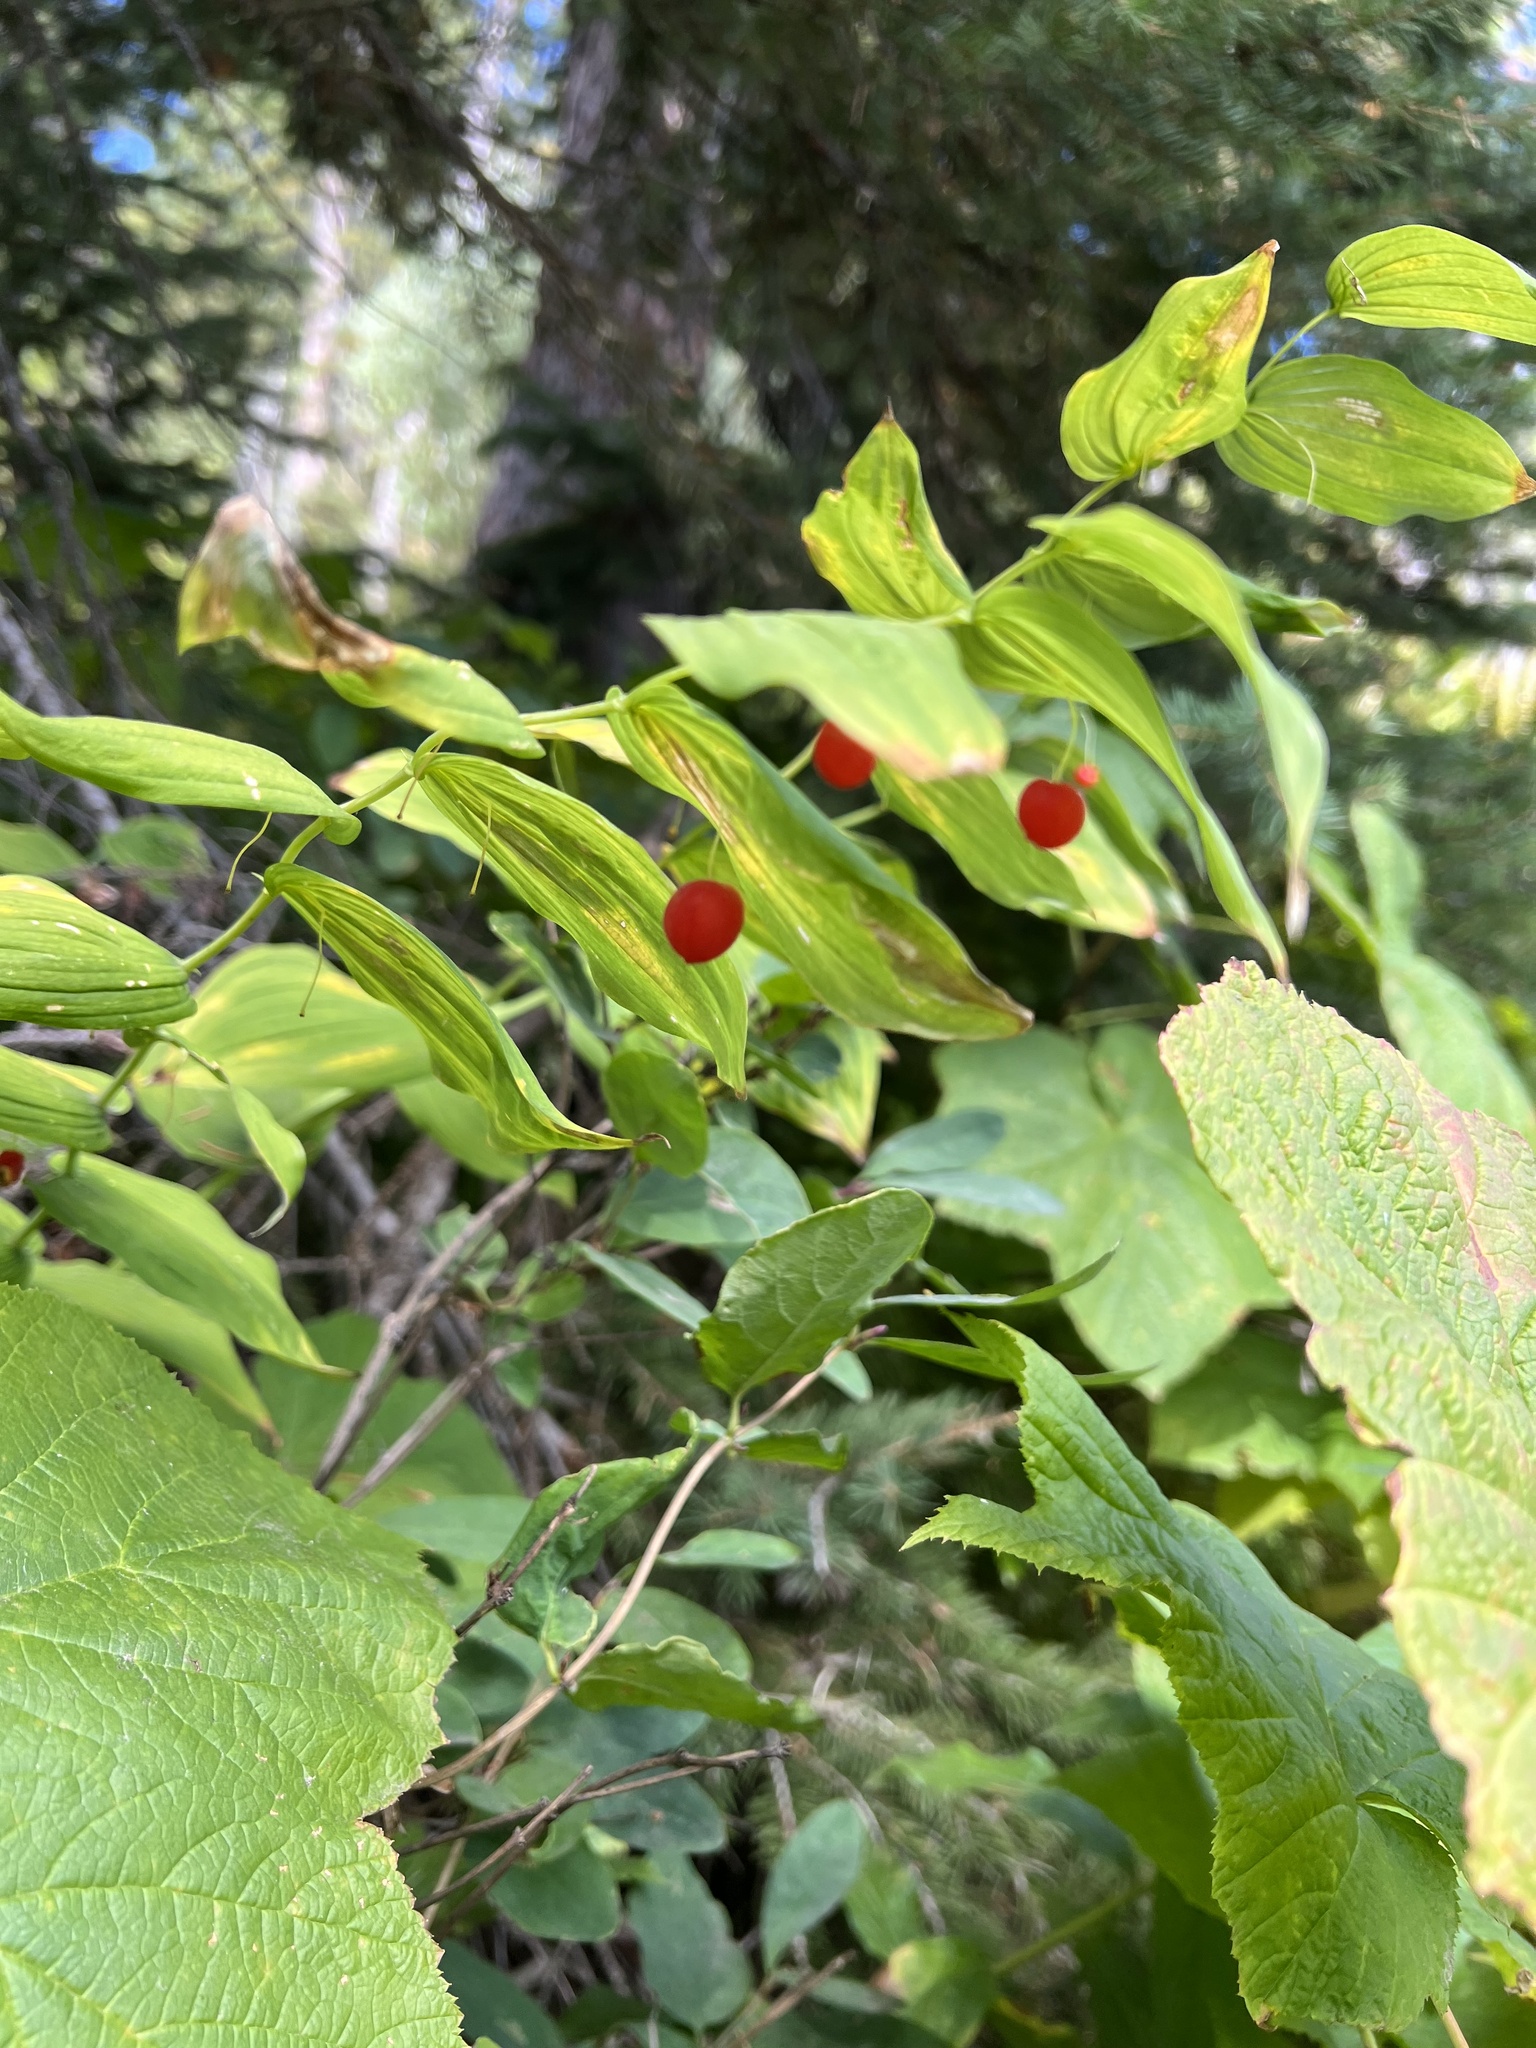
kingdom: Plantae
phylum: Tracheophyta
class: Liliopsida
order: Liliales
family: Liliaceae
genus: Streptopus
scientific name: Streptopus amplexifolius
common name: Clasp twisted stalk
